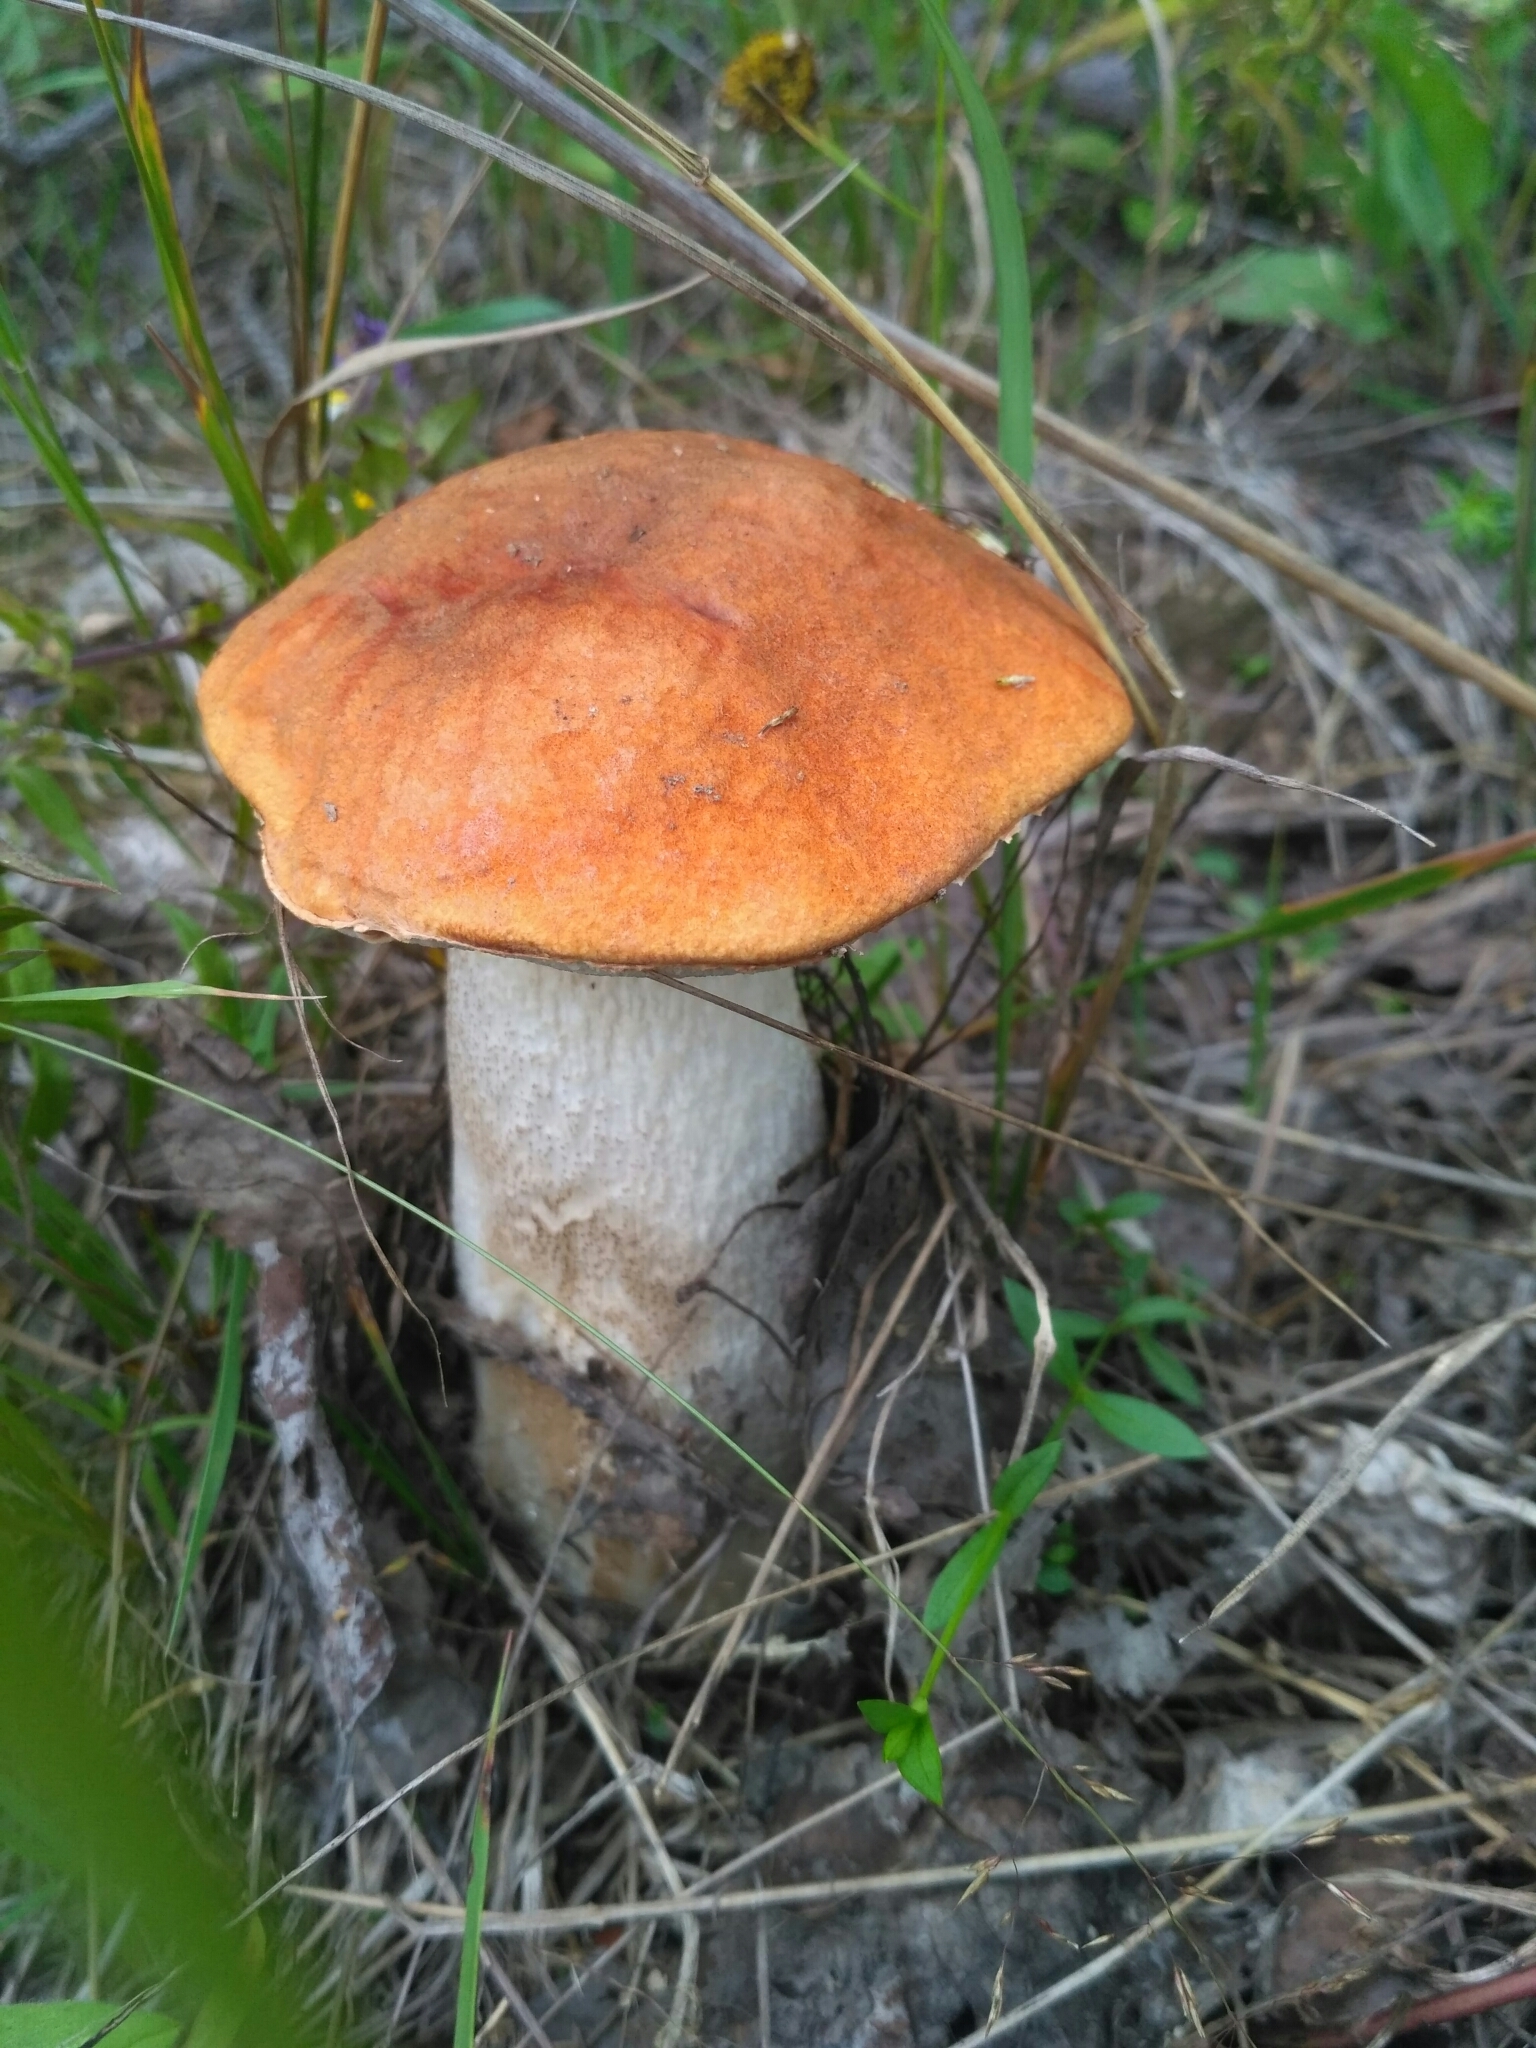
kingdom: Fungi
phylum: Basidiomycota
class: Agaricomycetes
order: Boletales
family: Boletaceae
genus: Leccinum
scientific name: Leccinum albostipitatum
